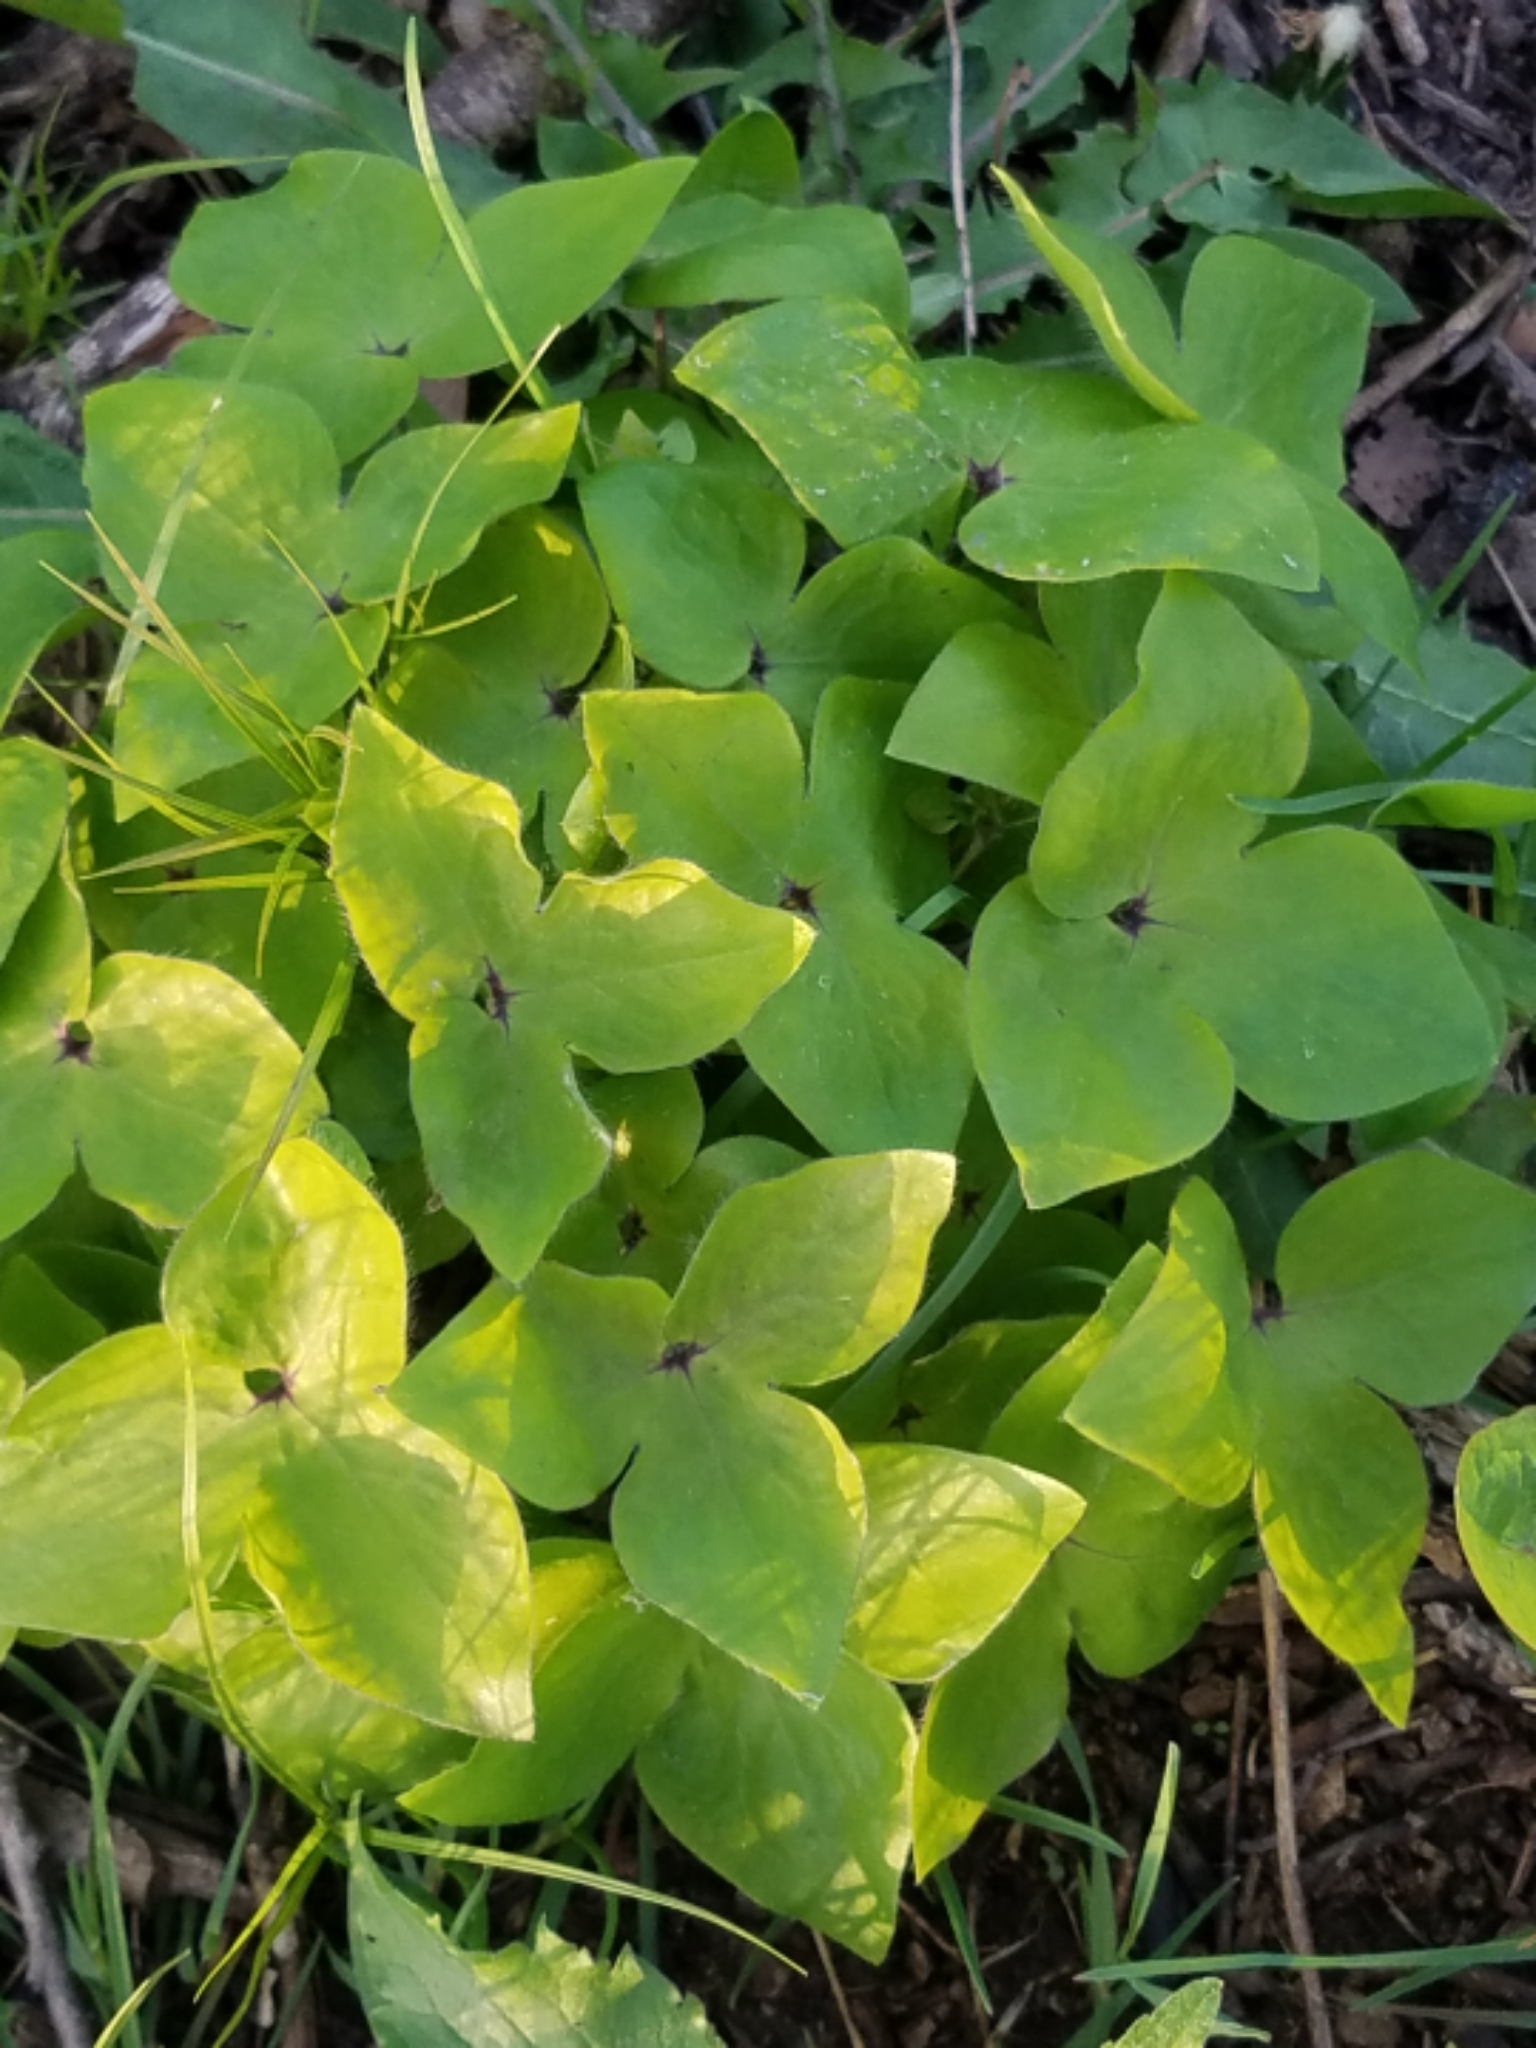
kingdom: Plantae
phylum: Tracheophyta
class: Magnoliopsida
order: Ranunculales
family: Ranunculaceae
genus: Hepatica
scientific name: Hepatica acutiloba
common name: Sharp-lobed hepatica
